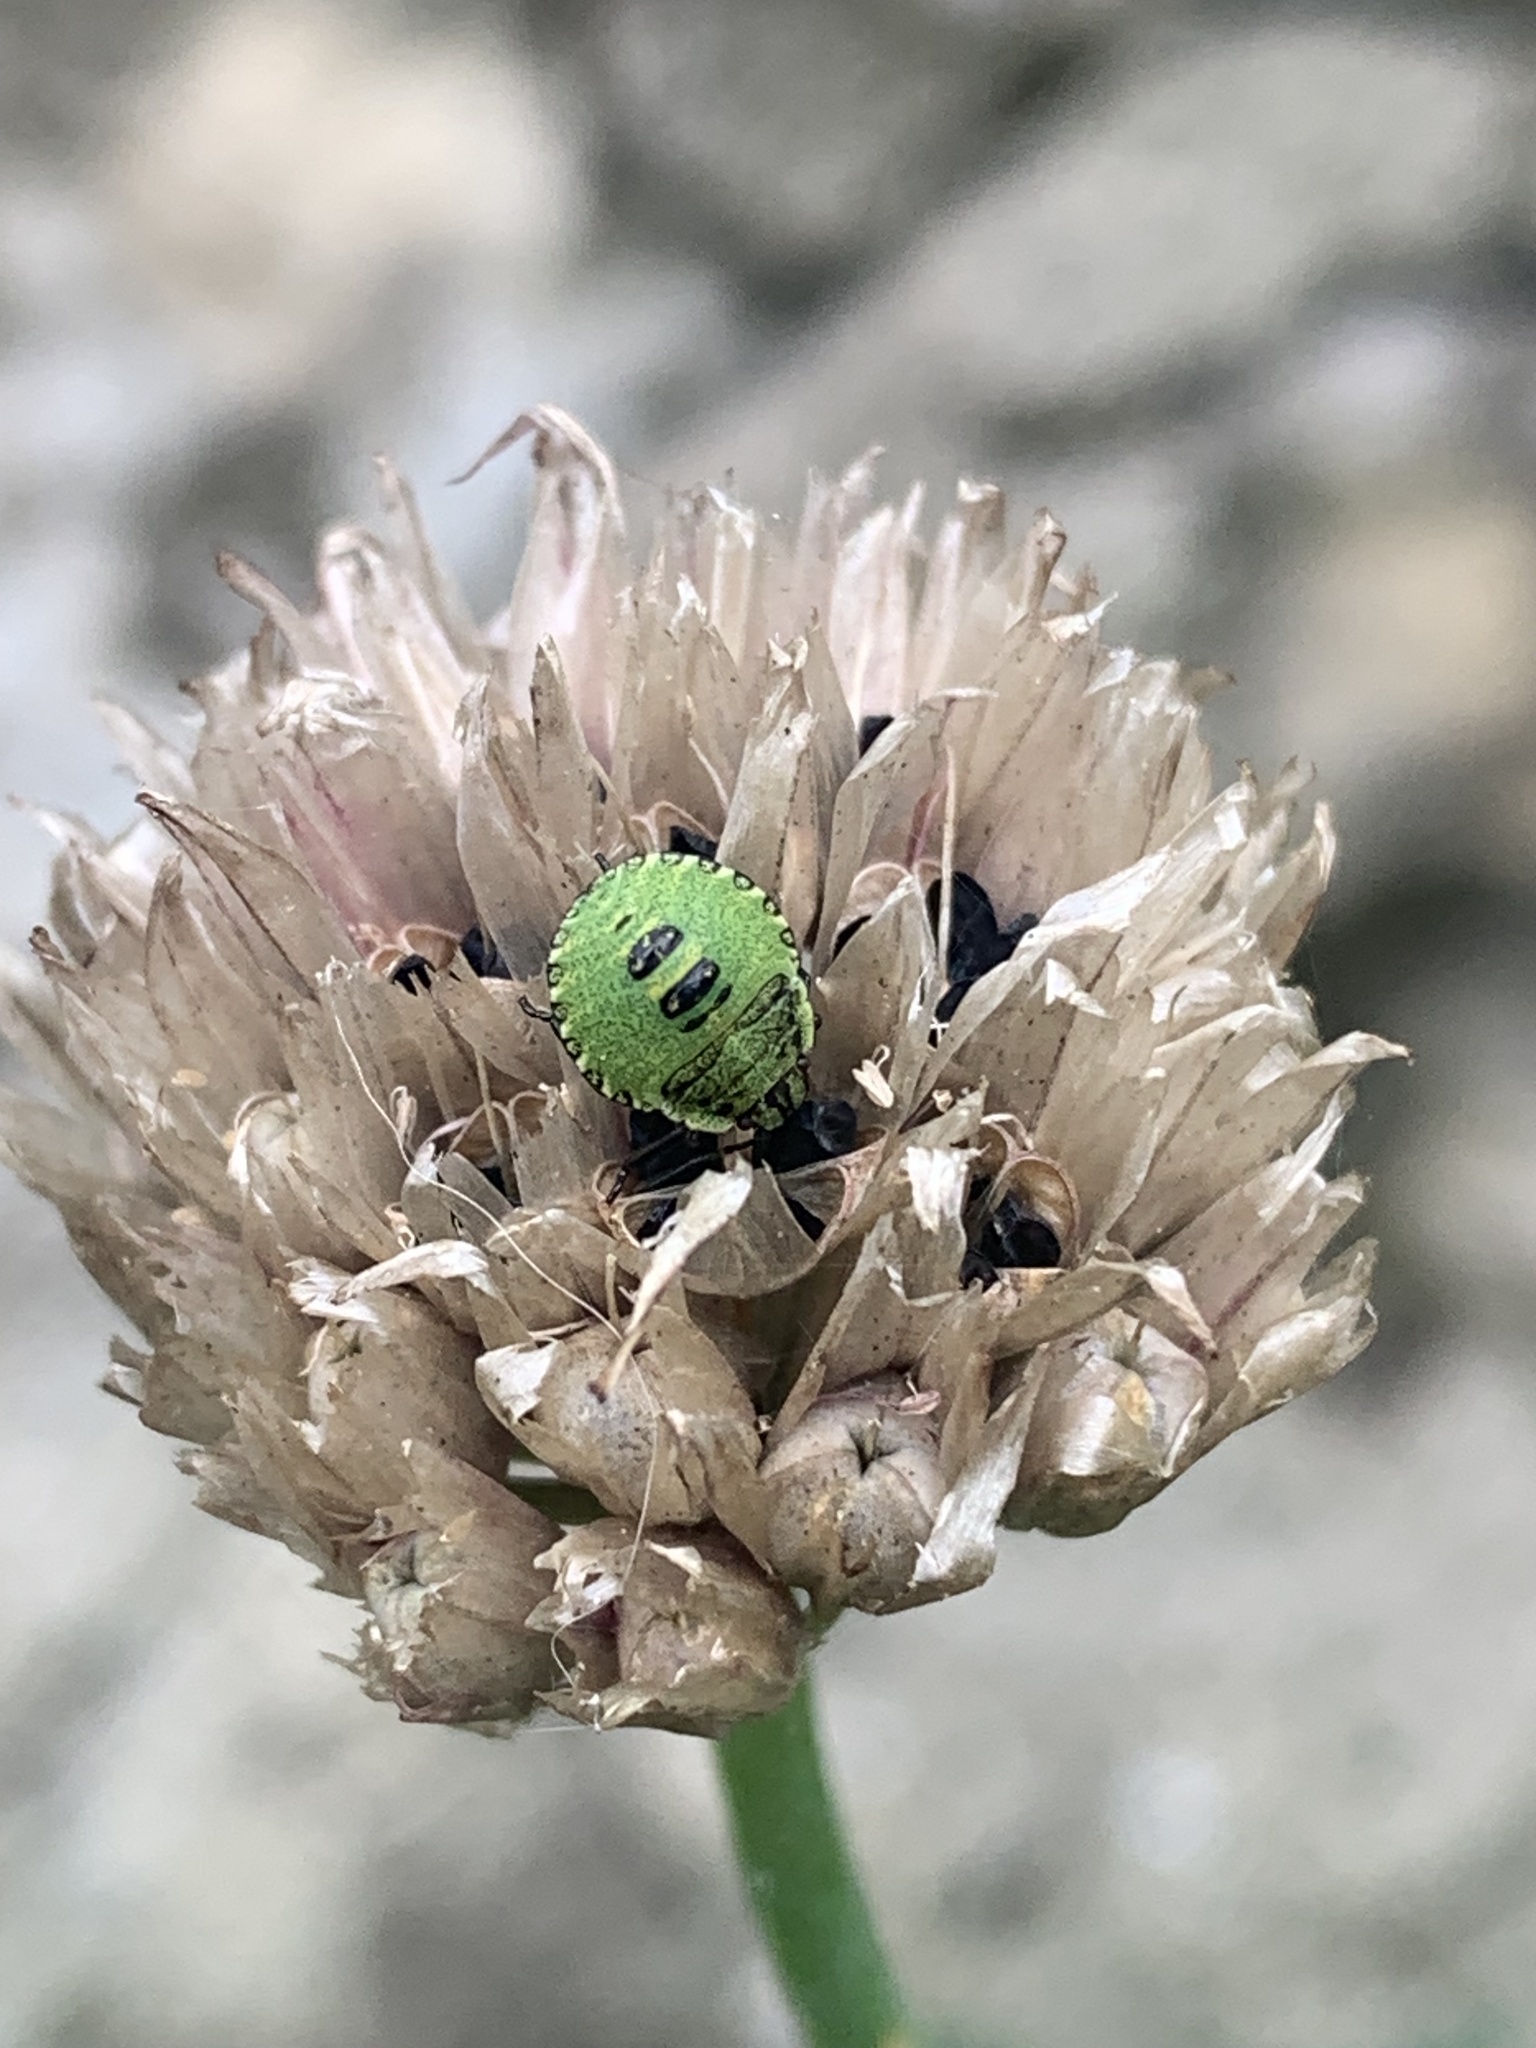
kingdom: Animalia
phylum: Arthropoda
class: Insecta
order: Hemiptera
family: Pentatomidae
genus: Palomena
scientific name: Palomena prasina
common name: Green shieldbug
